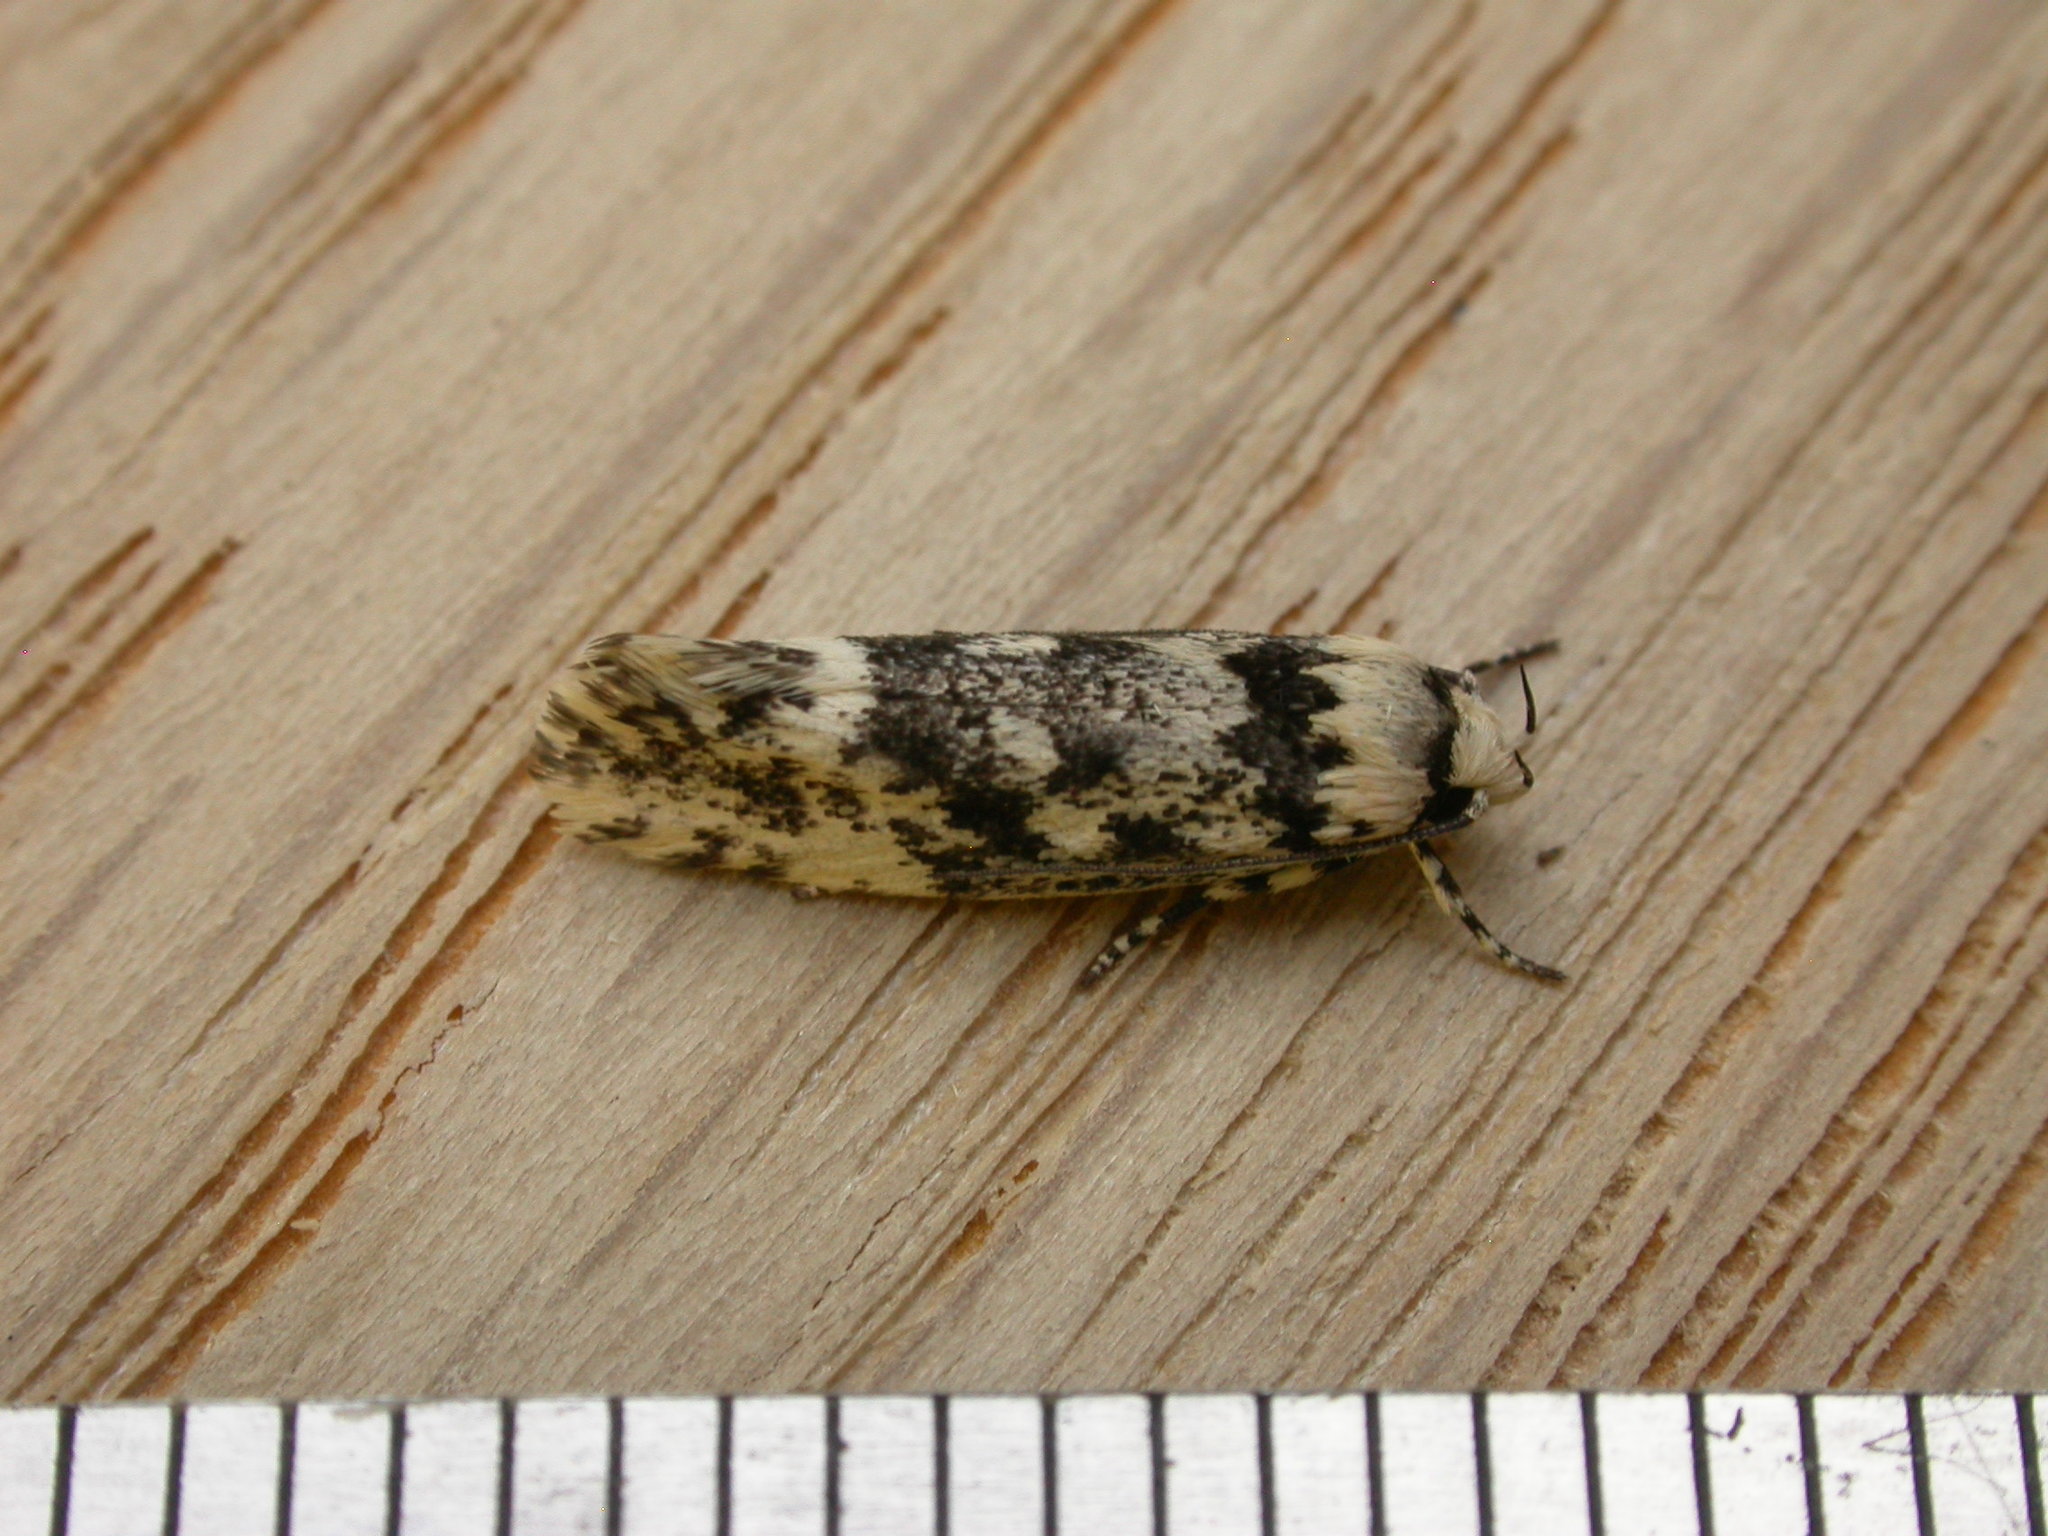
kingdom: Animalia
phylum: Arthropoda
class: Insecta
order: Lepidoptera
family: Xyloryctidae
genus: Lichenaula
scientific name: Lichenaula lichenea
